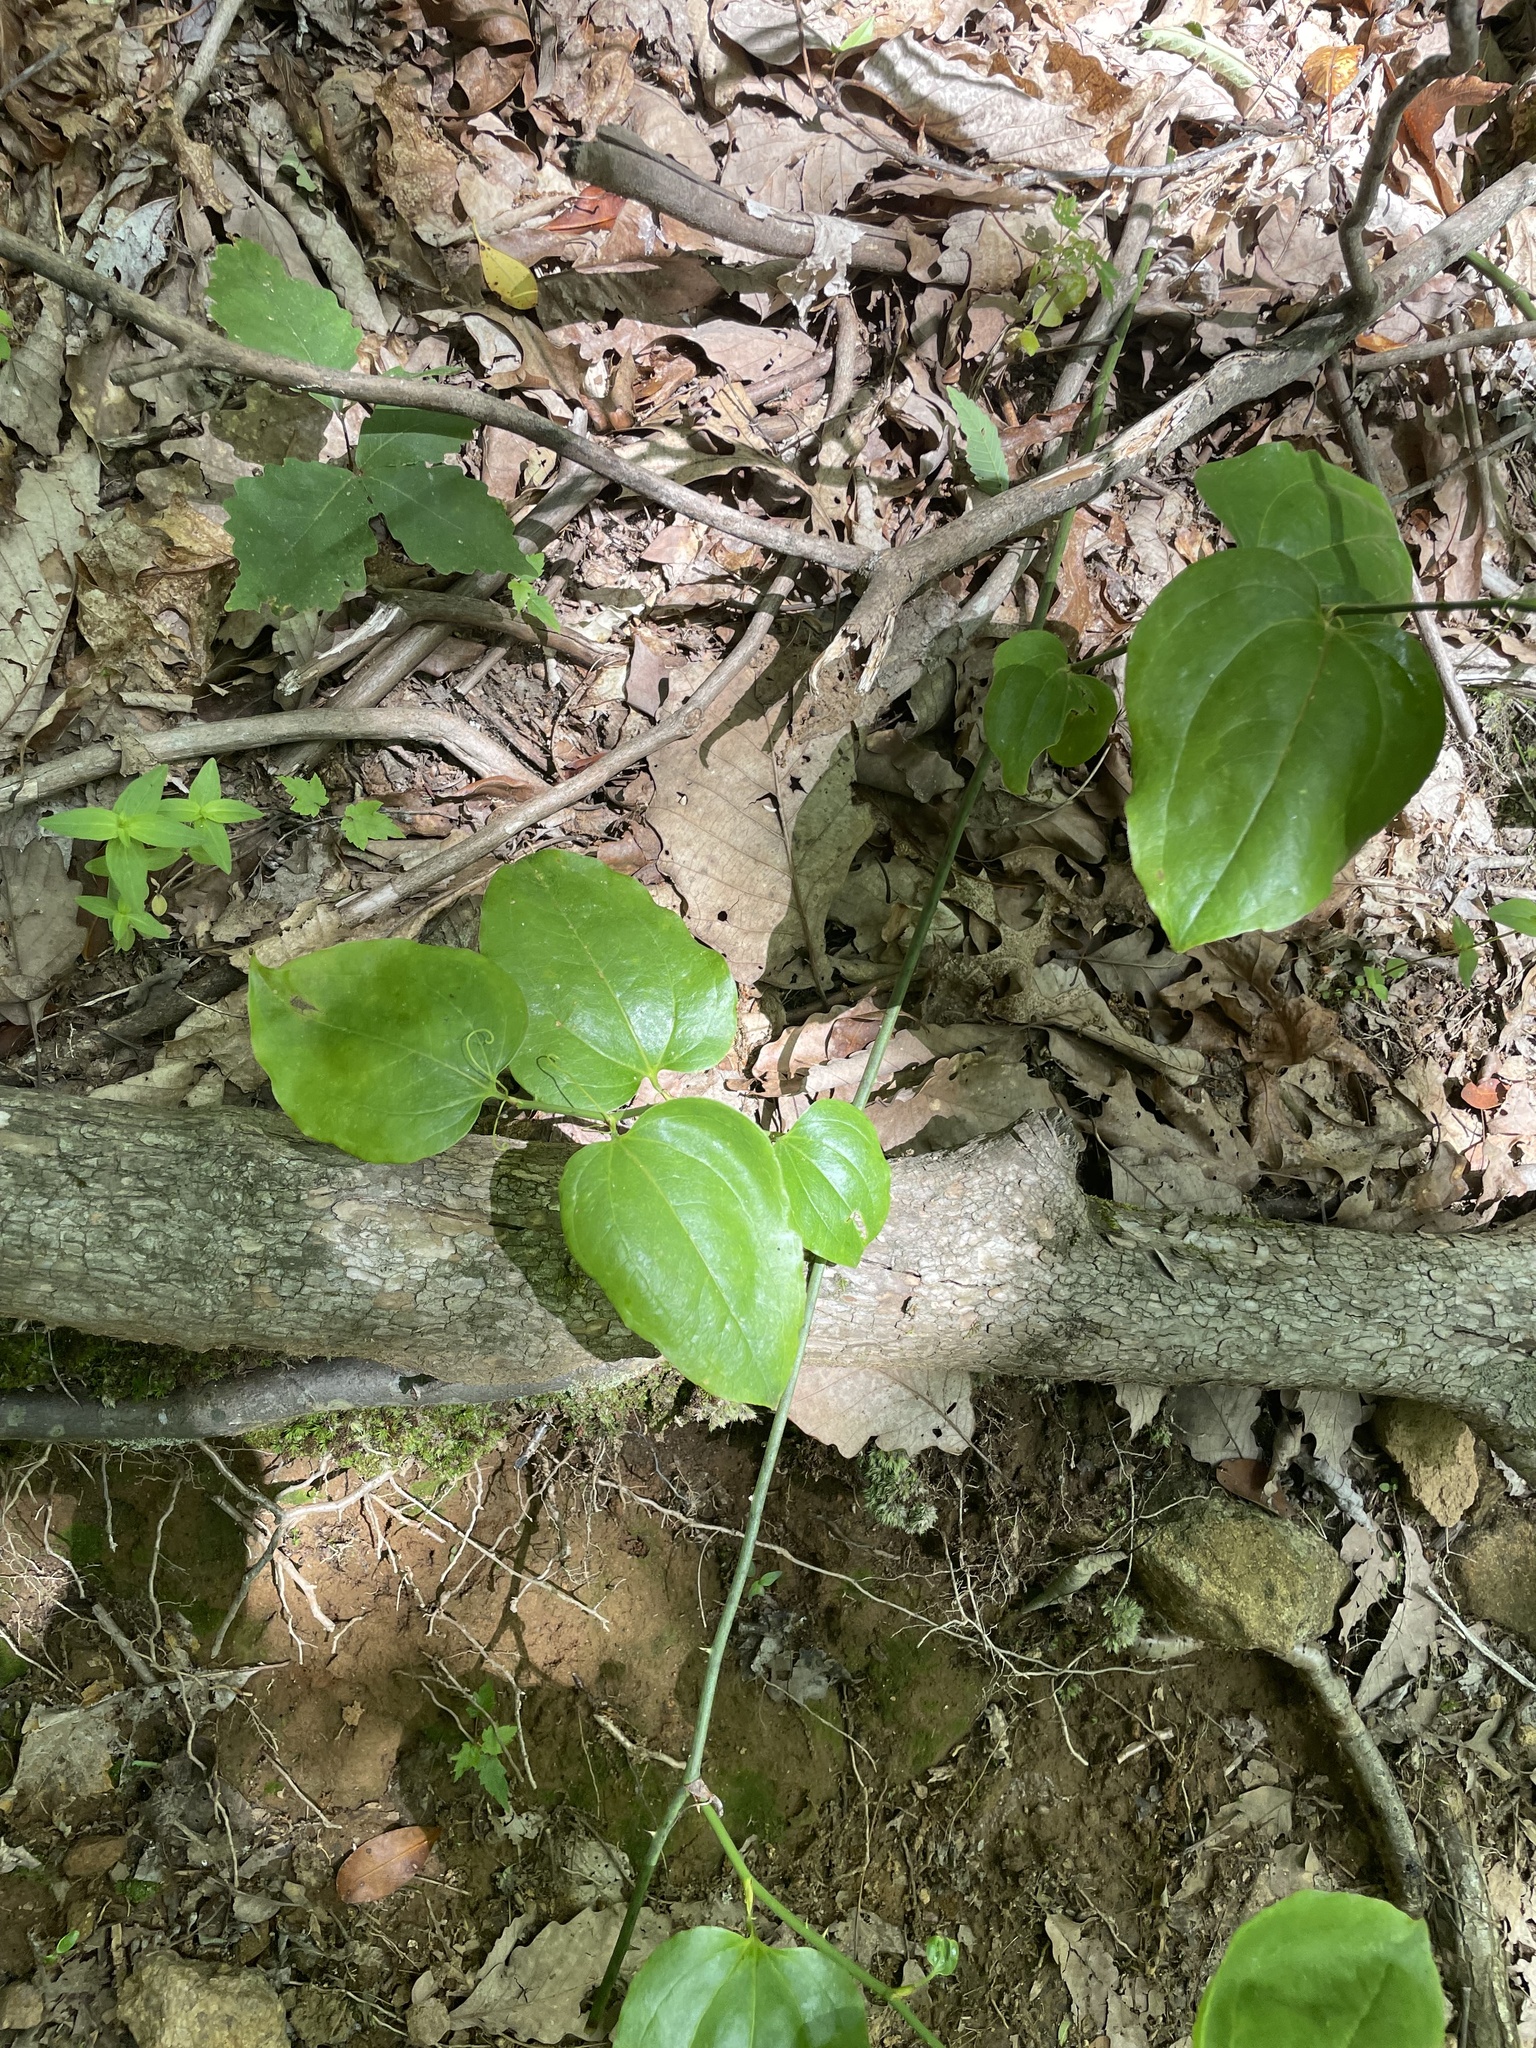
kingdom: Plantae
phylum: Tracheophyta
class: Liliopsida
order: Liliales
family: Smilacaceae
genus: Smilax
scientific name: Smilax rotundifolia
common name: Bullbriar
